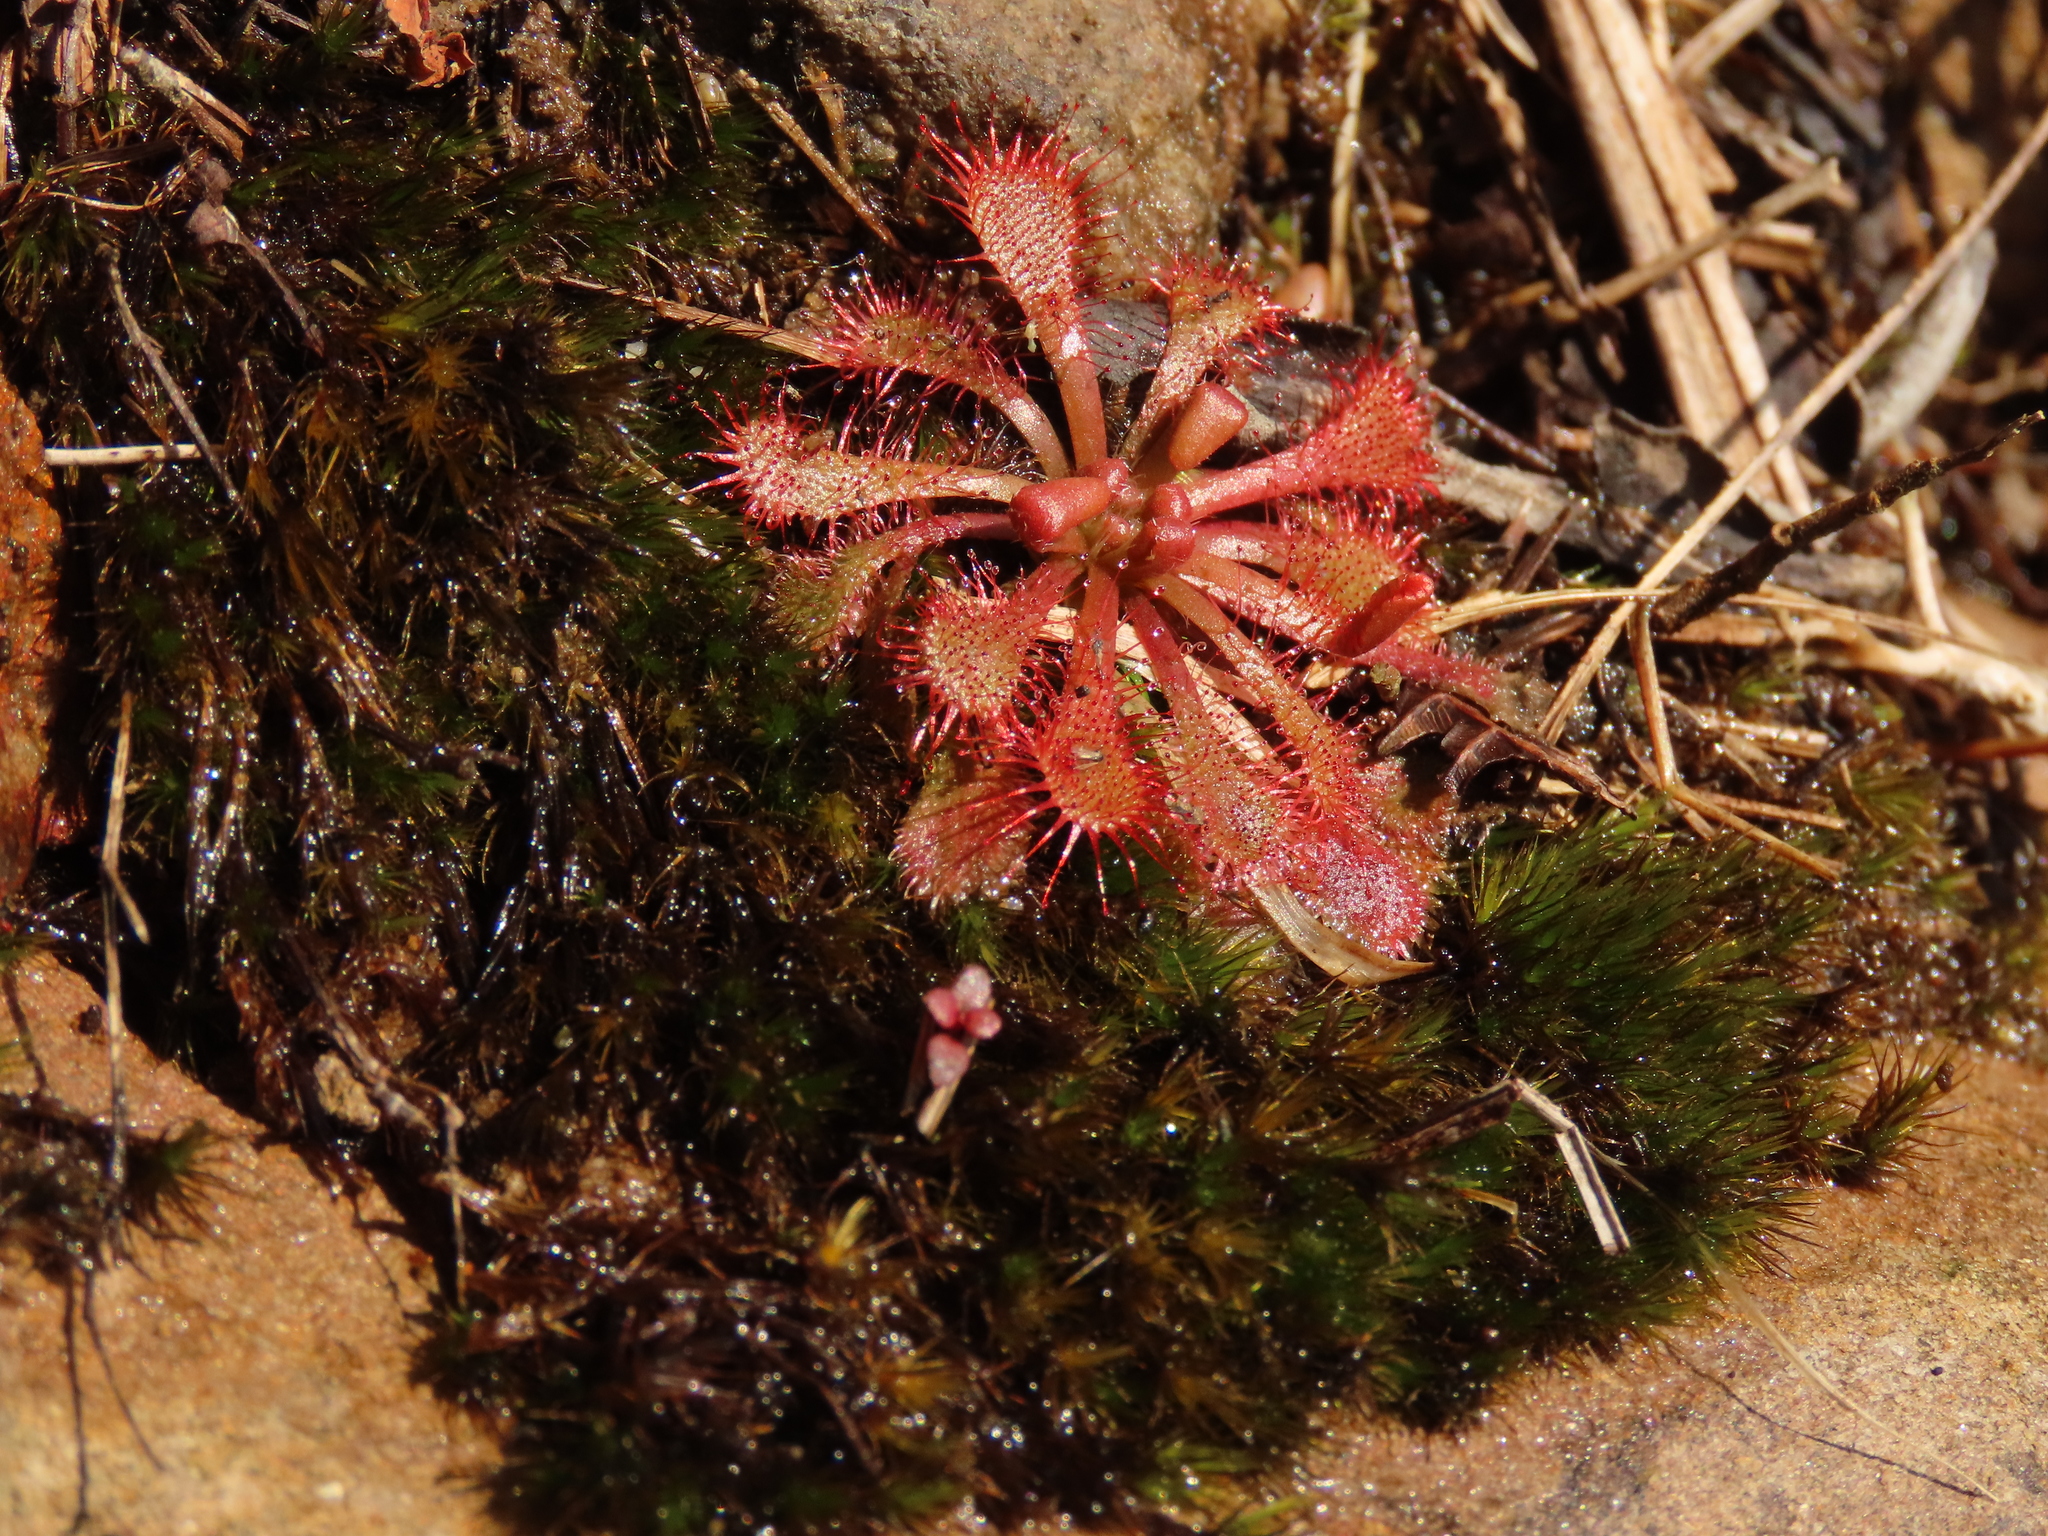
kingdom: Plantae
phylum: Tracheophyta
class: Magnoliopsida
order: Caryophyllales
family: Droseraceae
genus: Drosera
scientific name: Drosera spatulata
